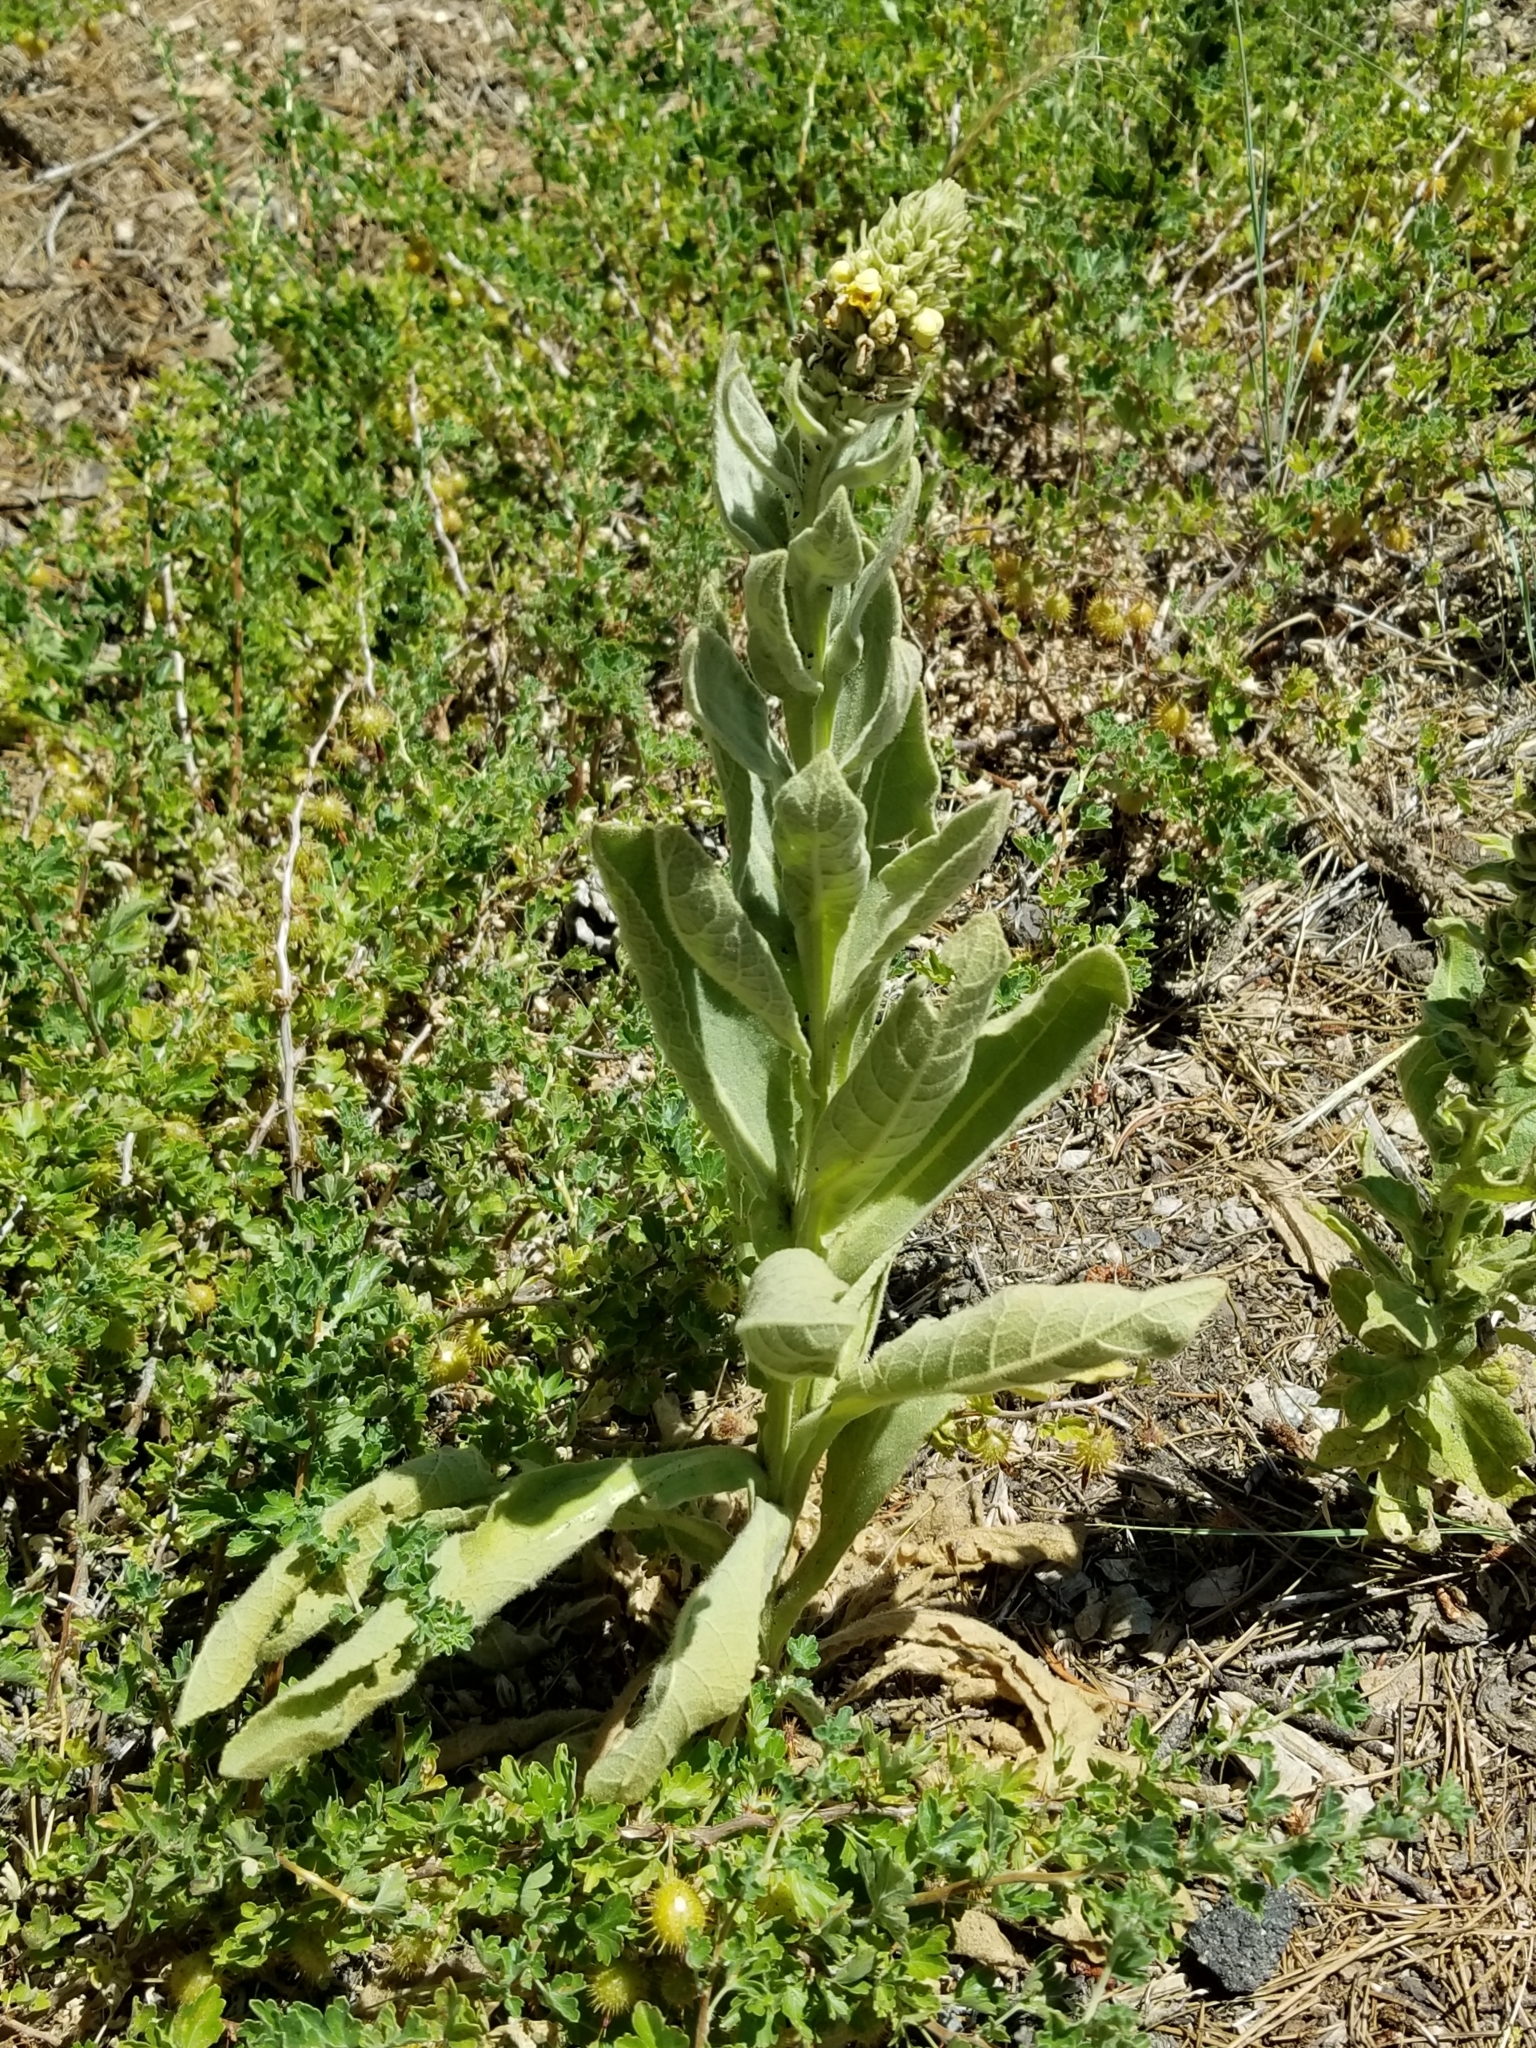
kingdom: Plantae
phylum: Tracheophyta
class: Magnoliopsida
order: Lamiales
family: Scrophulariaceae
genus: Verbascum
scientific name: Verbascum thapsus
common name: Common mullein
